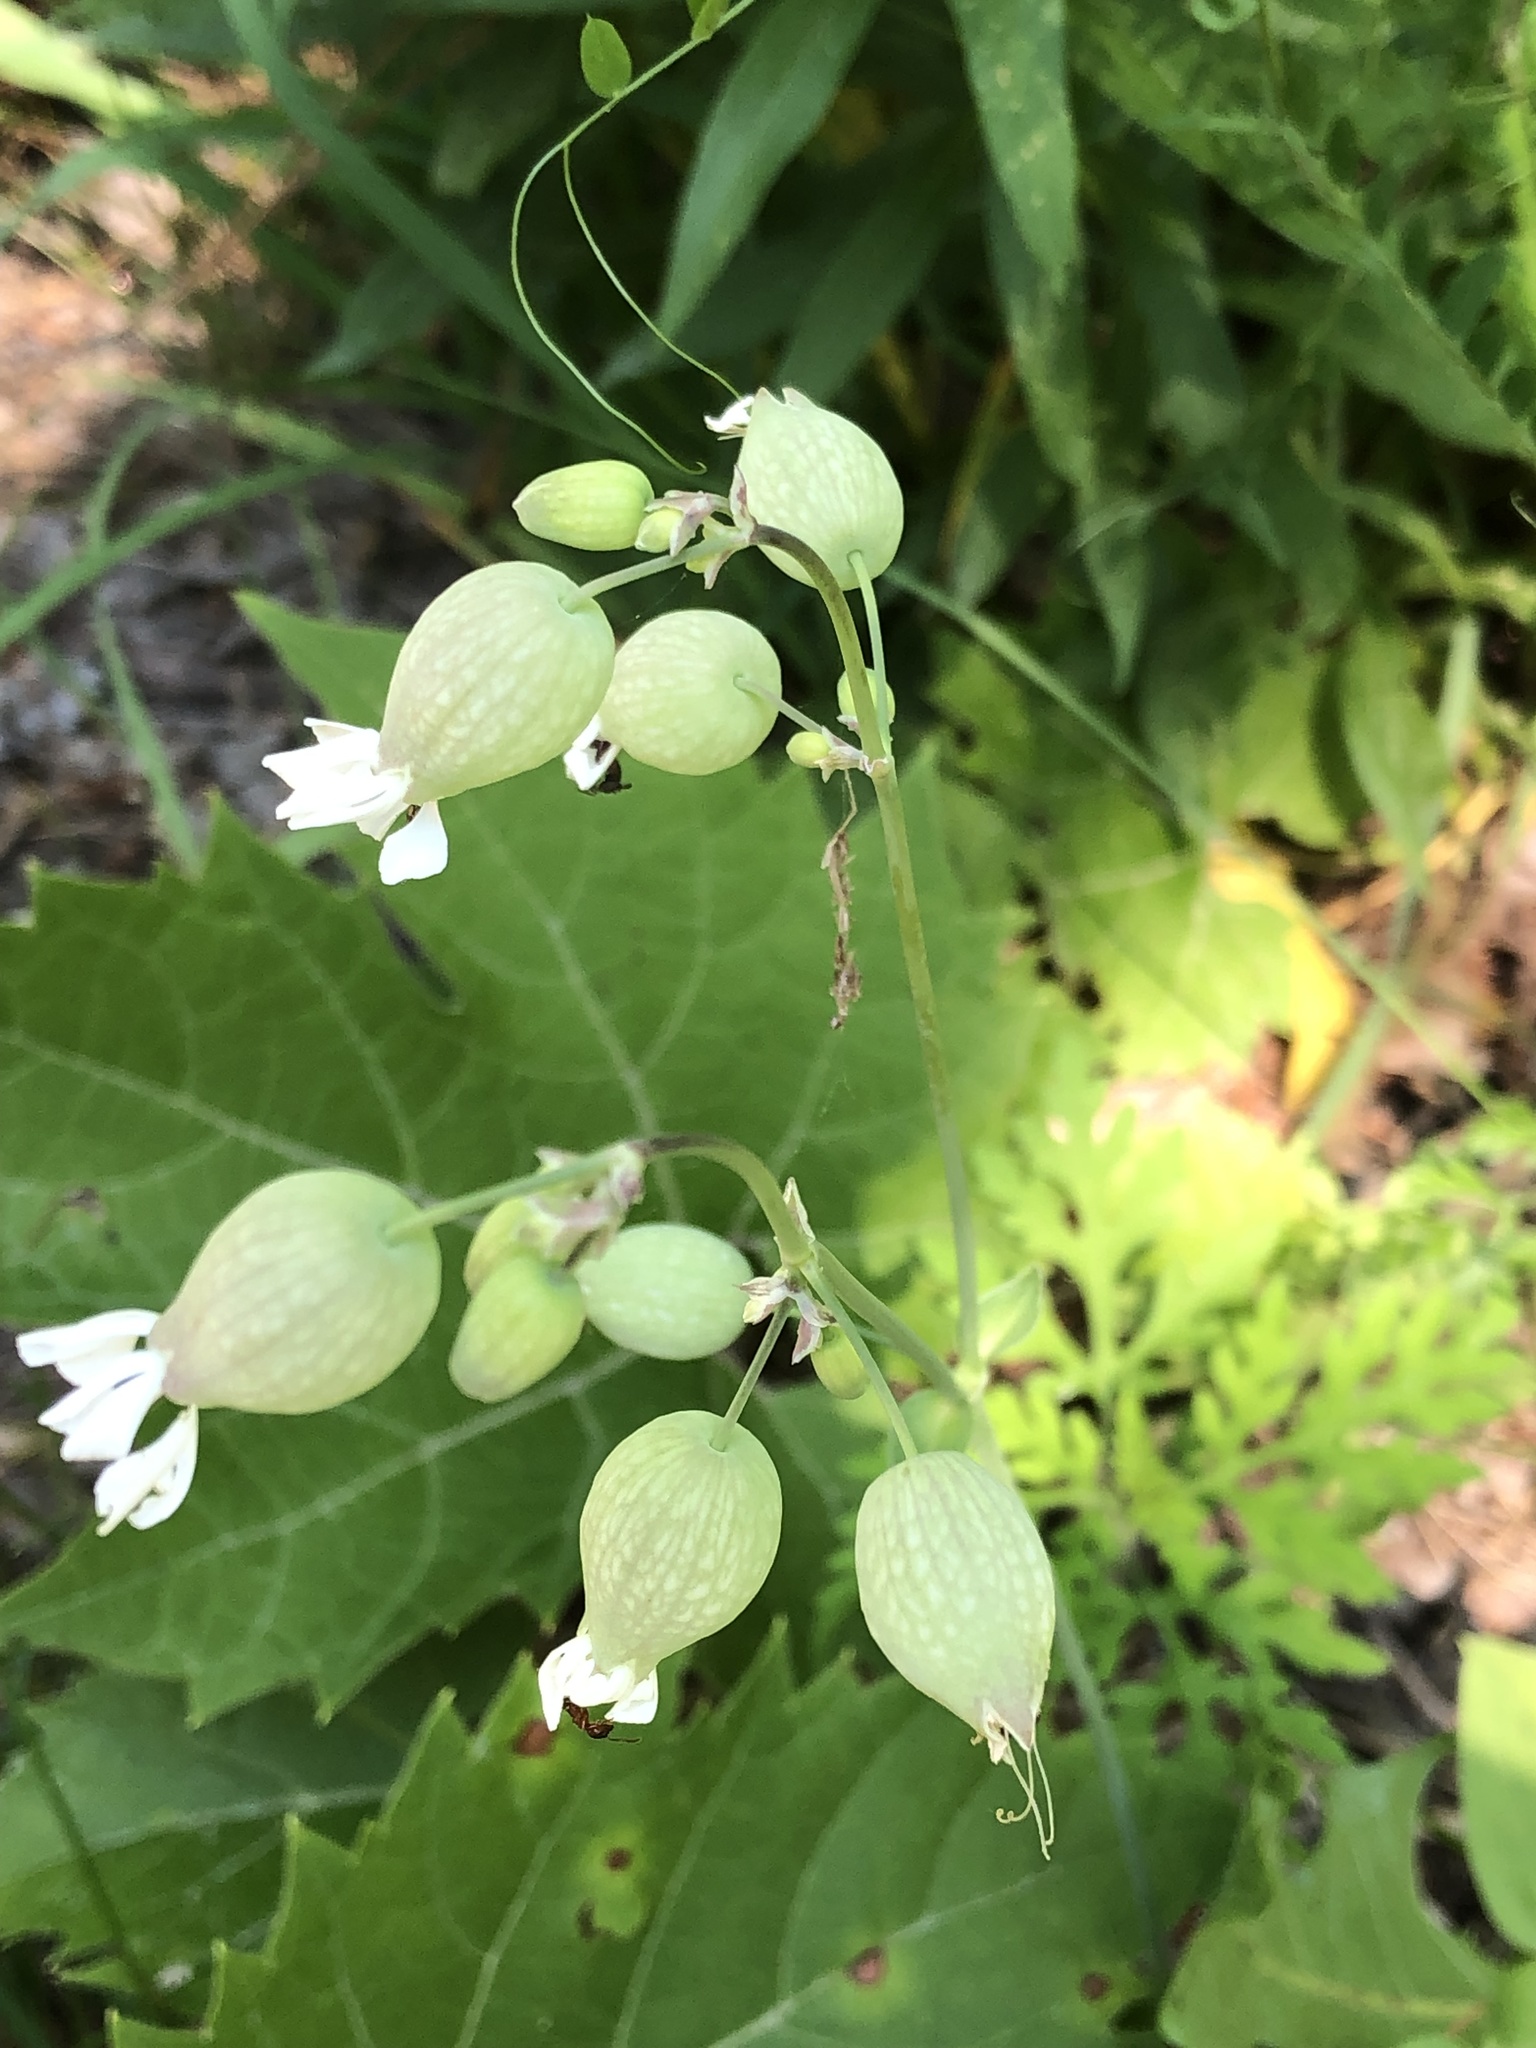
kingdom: Plantae
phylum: Tracheophyta
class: Magnoliopsida
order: Caryophyllales
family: Caryophyllaceae
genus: Silene
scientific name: Silene vulgaris
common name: Bladder campion
